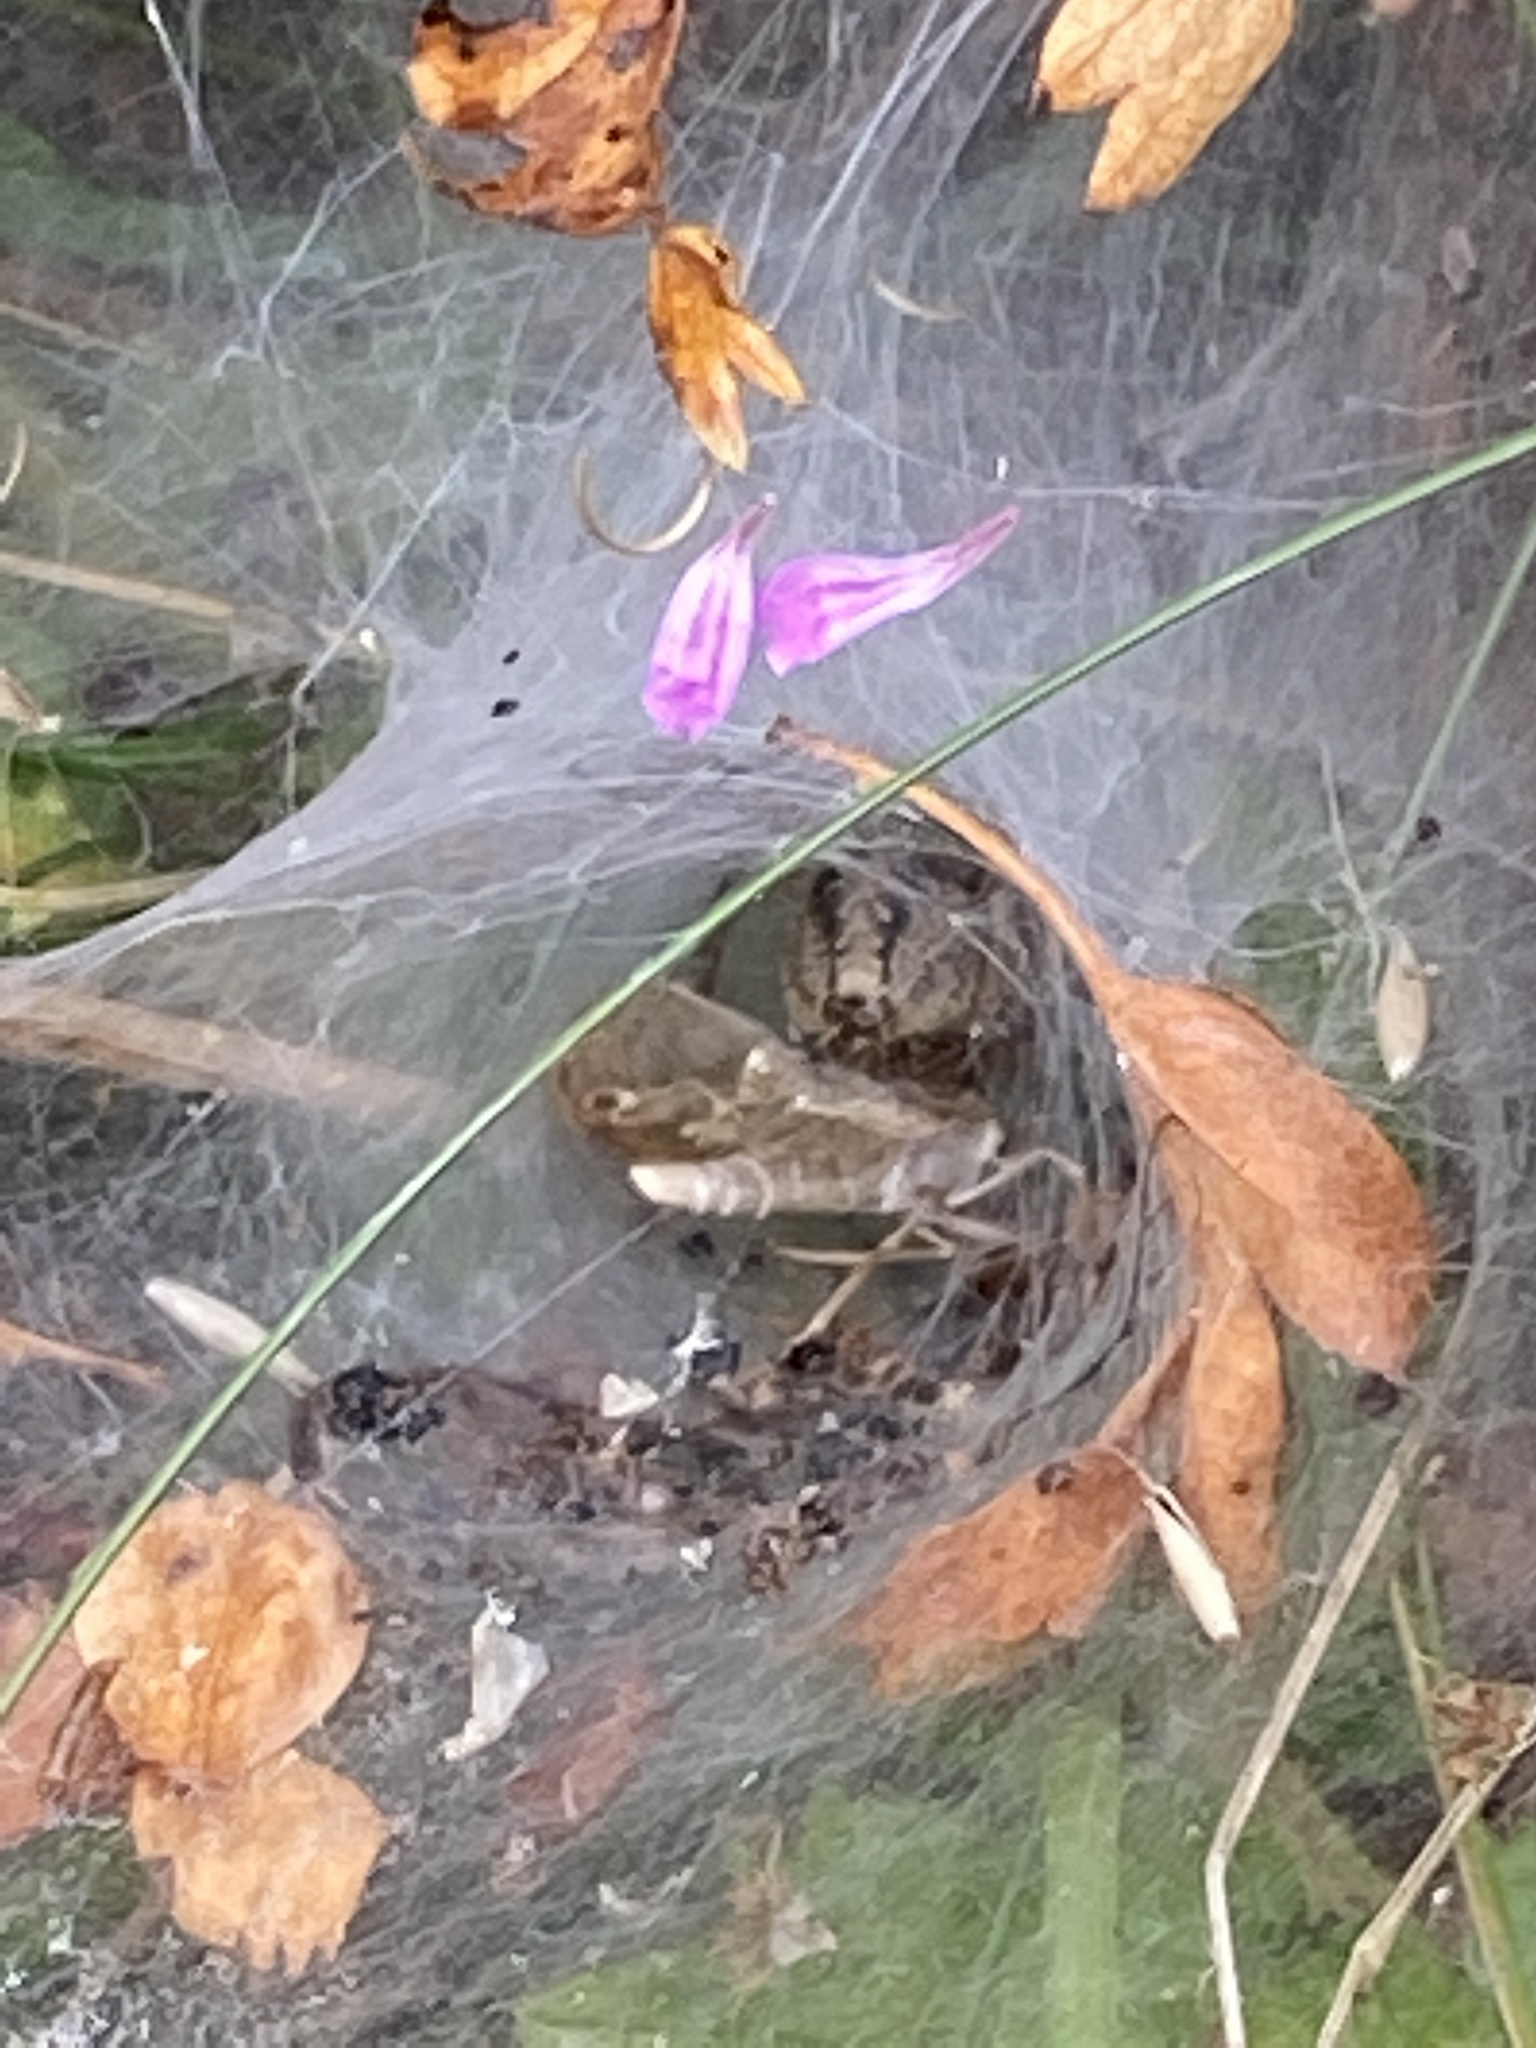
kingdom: Animalia
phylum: Arthropoda
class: Arachnida
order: Araneae
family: Agelenidae
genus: Agelena
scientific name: Agelena labyrinthica
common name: Labyrinth spider
